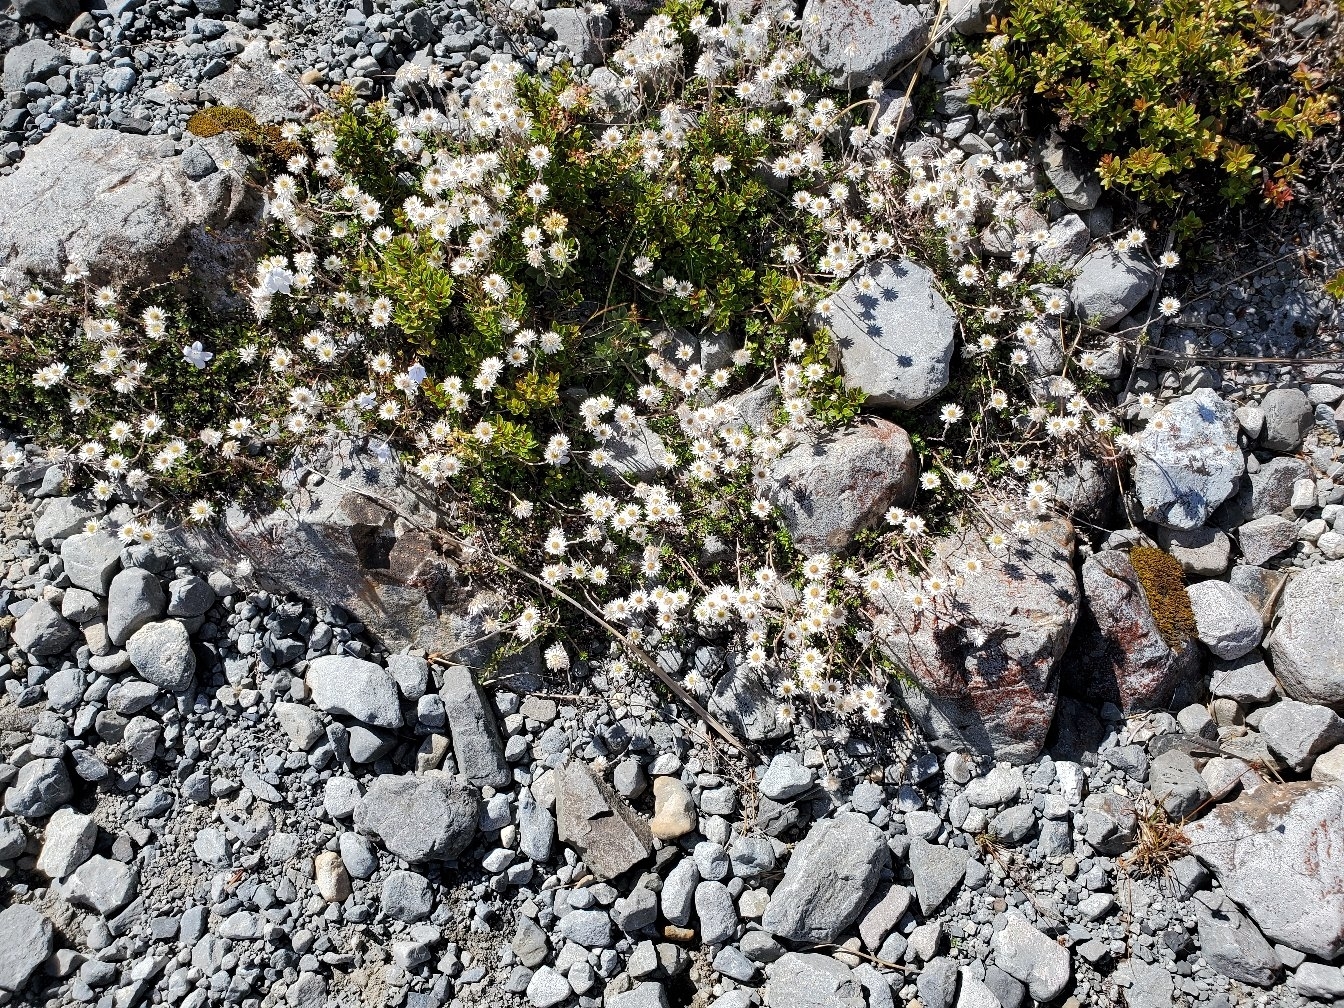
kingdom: Plantae
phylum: Tracheophyta
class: Magnoliopsida
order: Asterales
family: Asteraceae
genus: Anaphalioides
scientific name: Anaphalioides bellidioides
